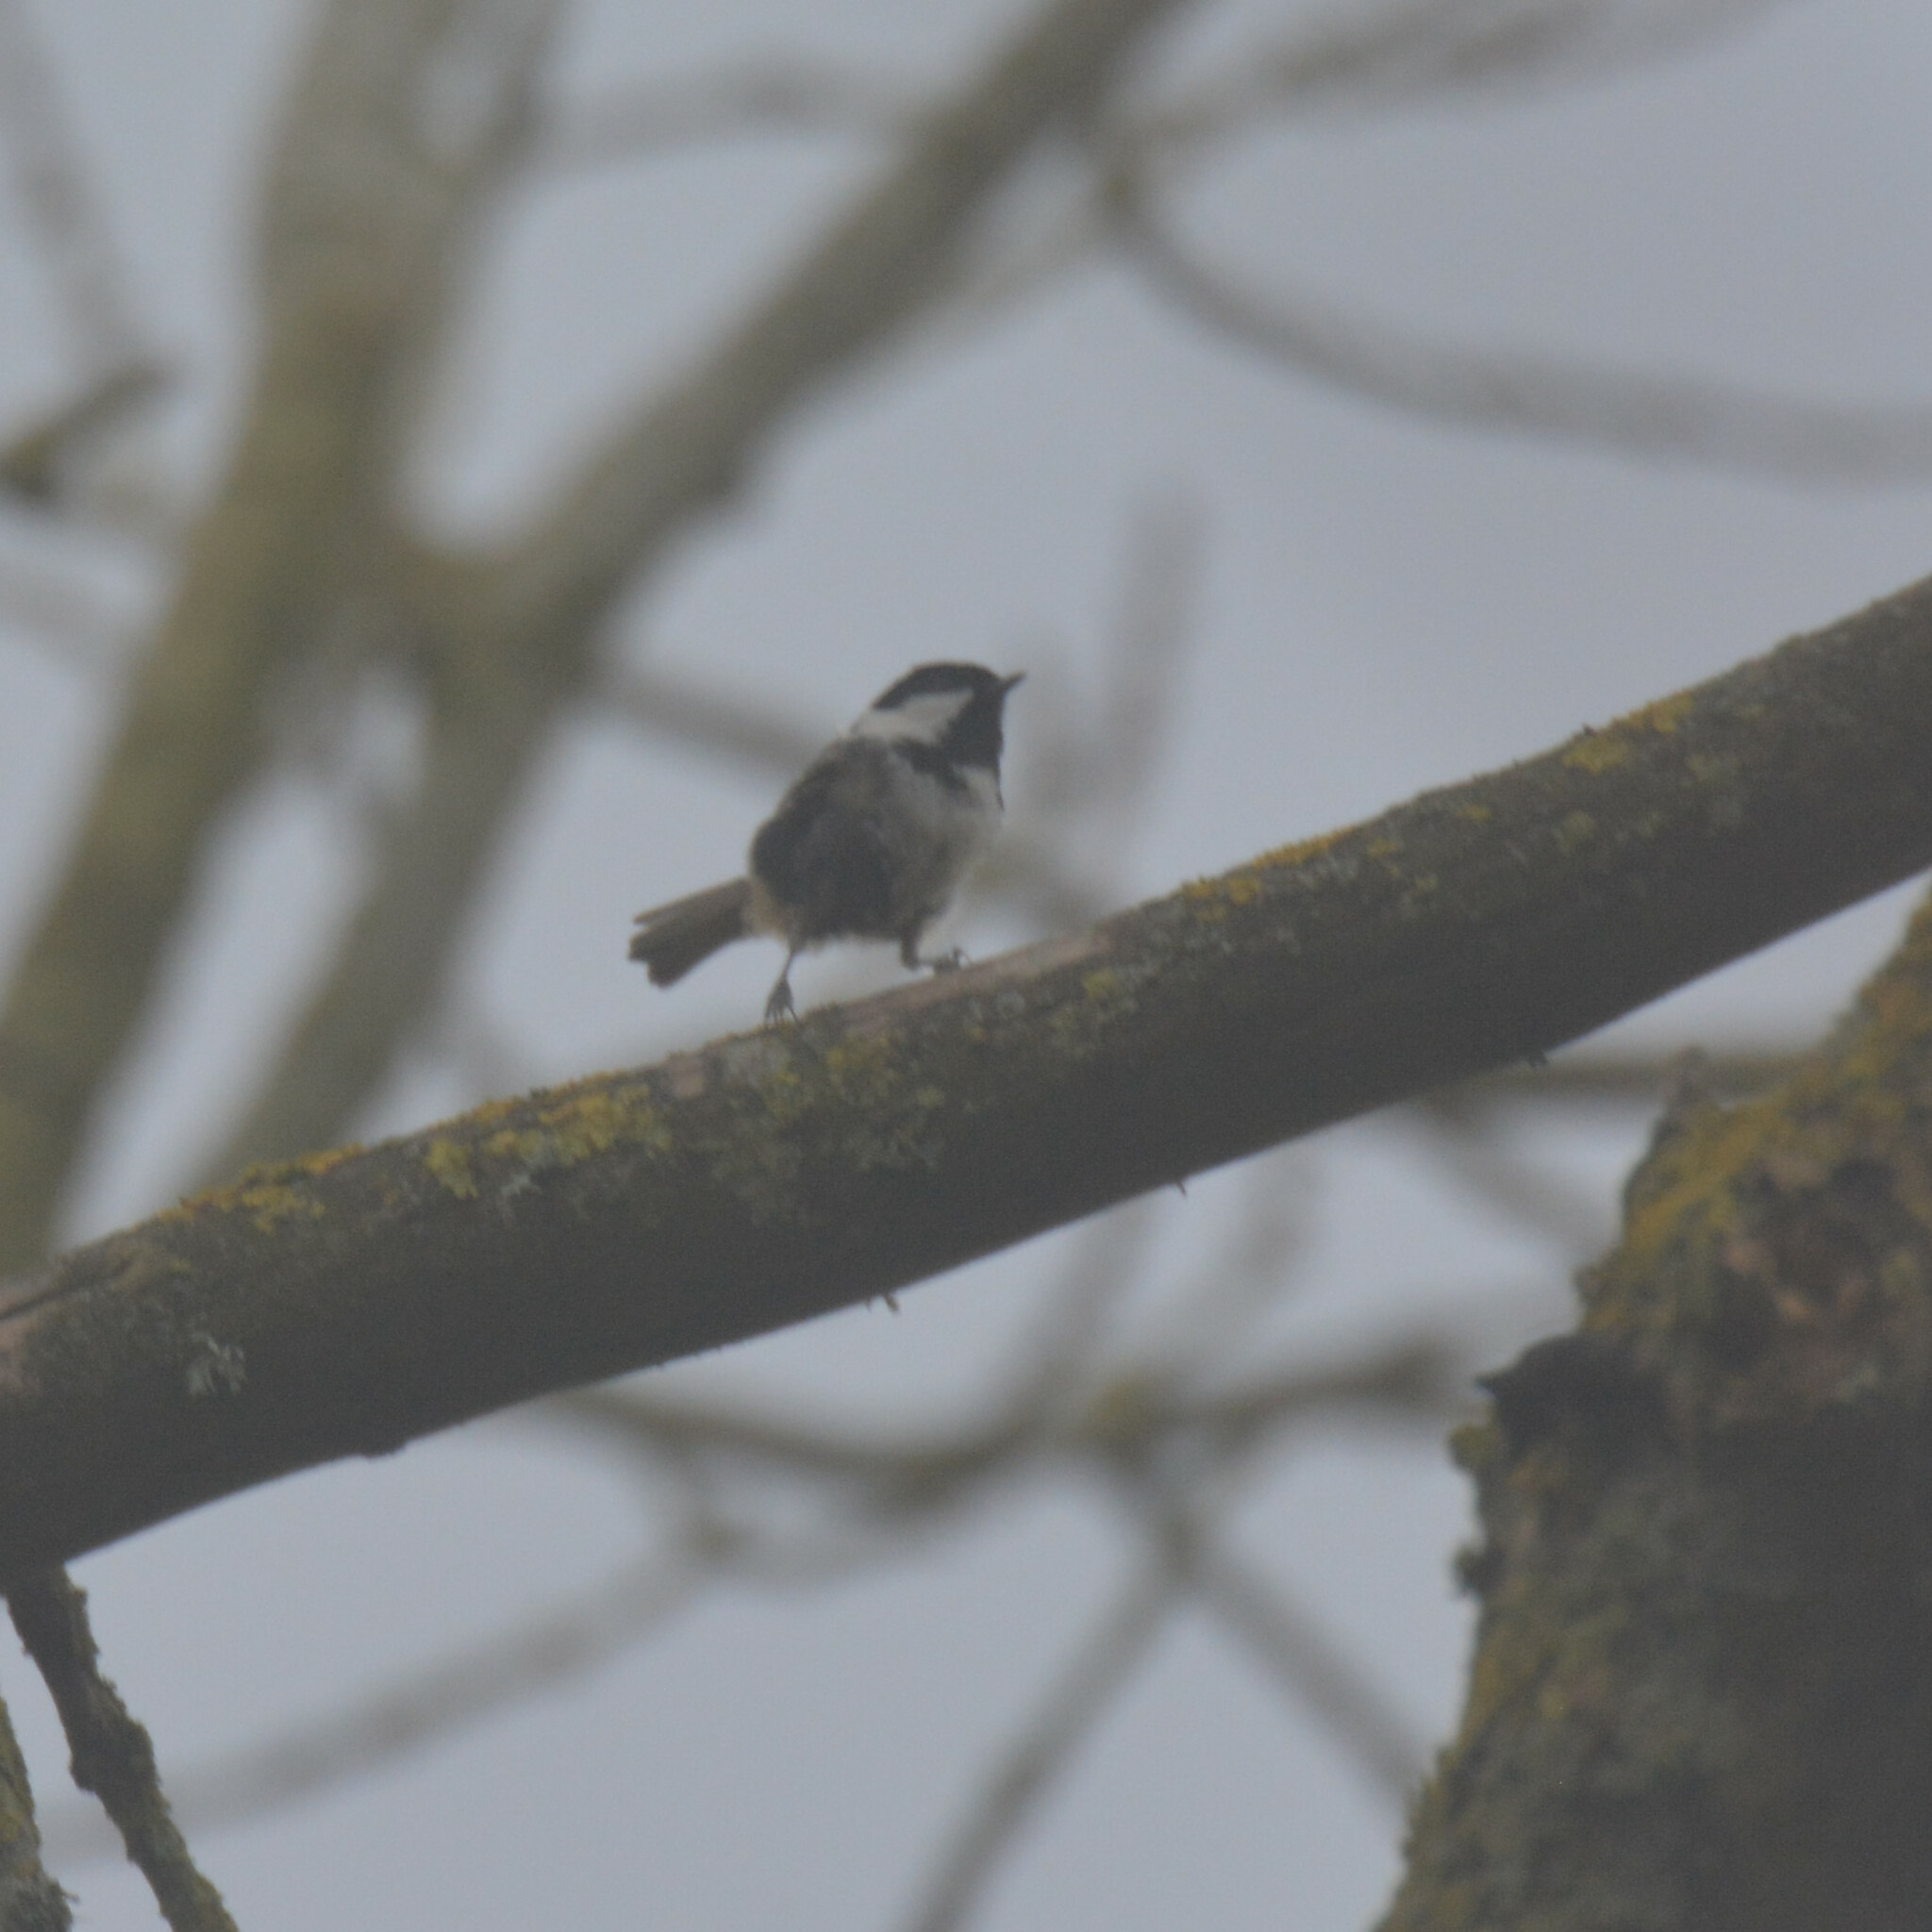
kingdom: Animalia
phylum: Chordata
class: Aves
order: Passeriformes
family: Paridae
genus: Periparus
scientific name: Periparus ater
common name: Coal tit
